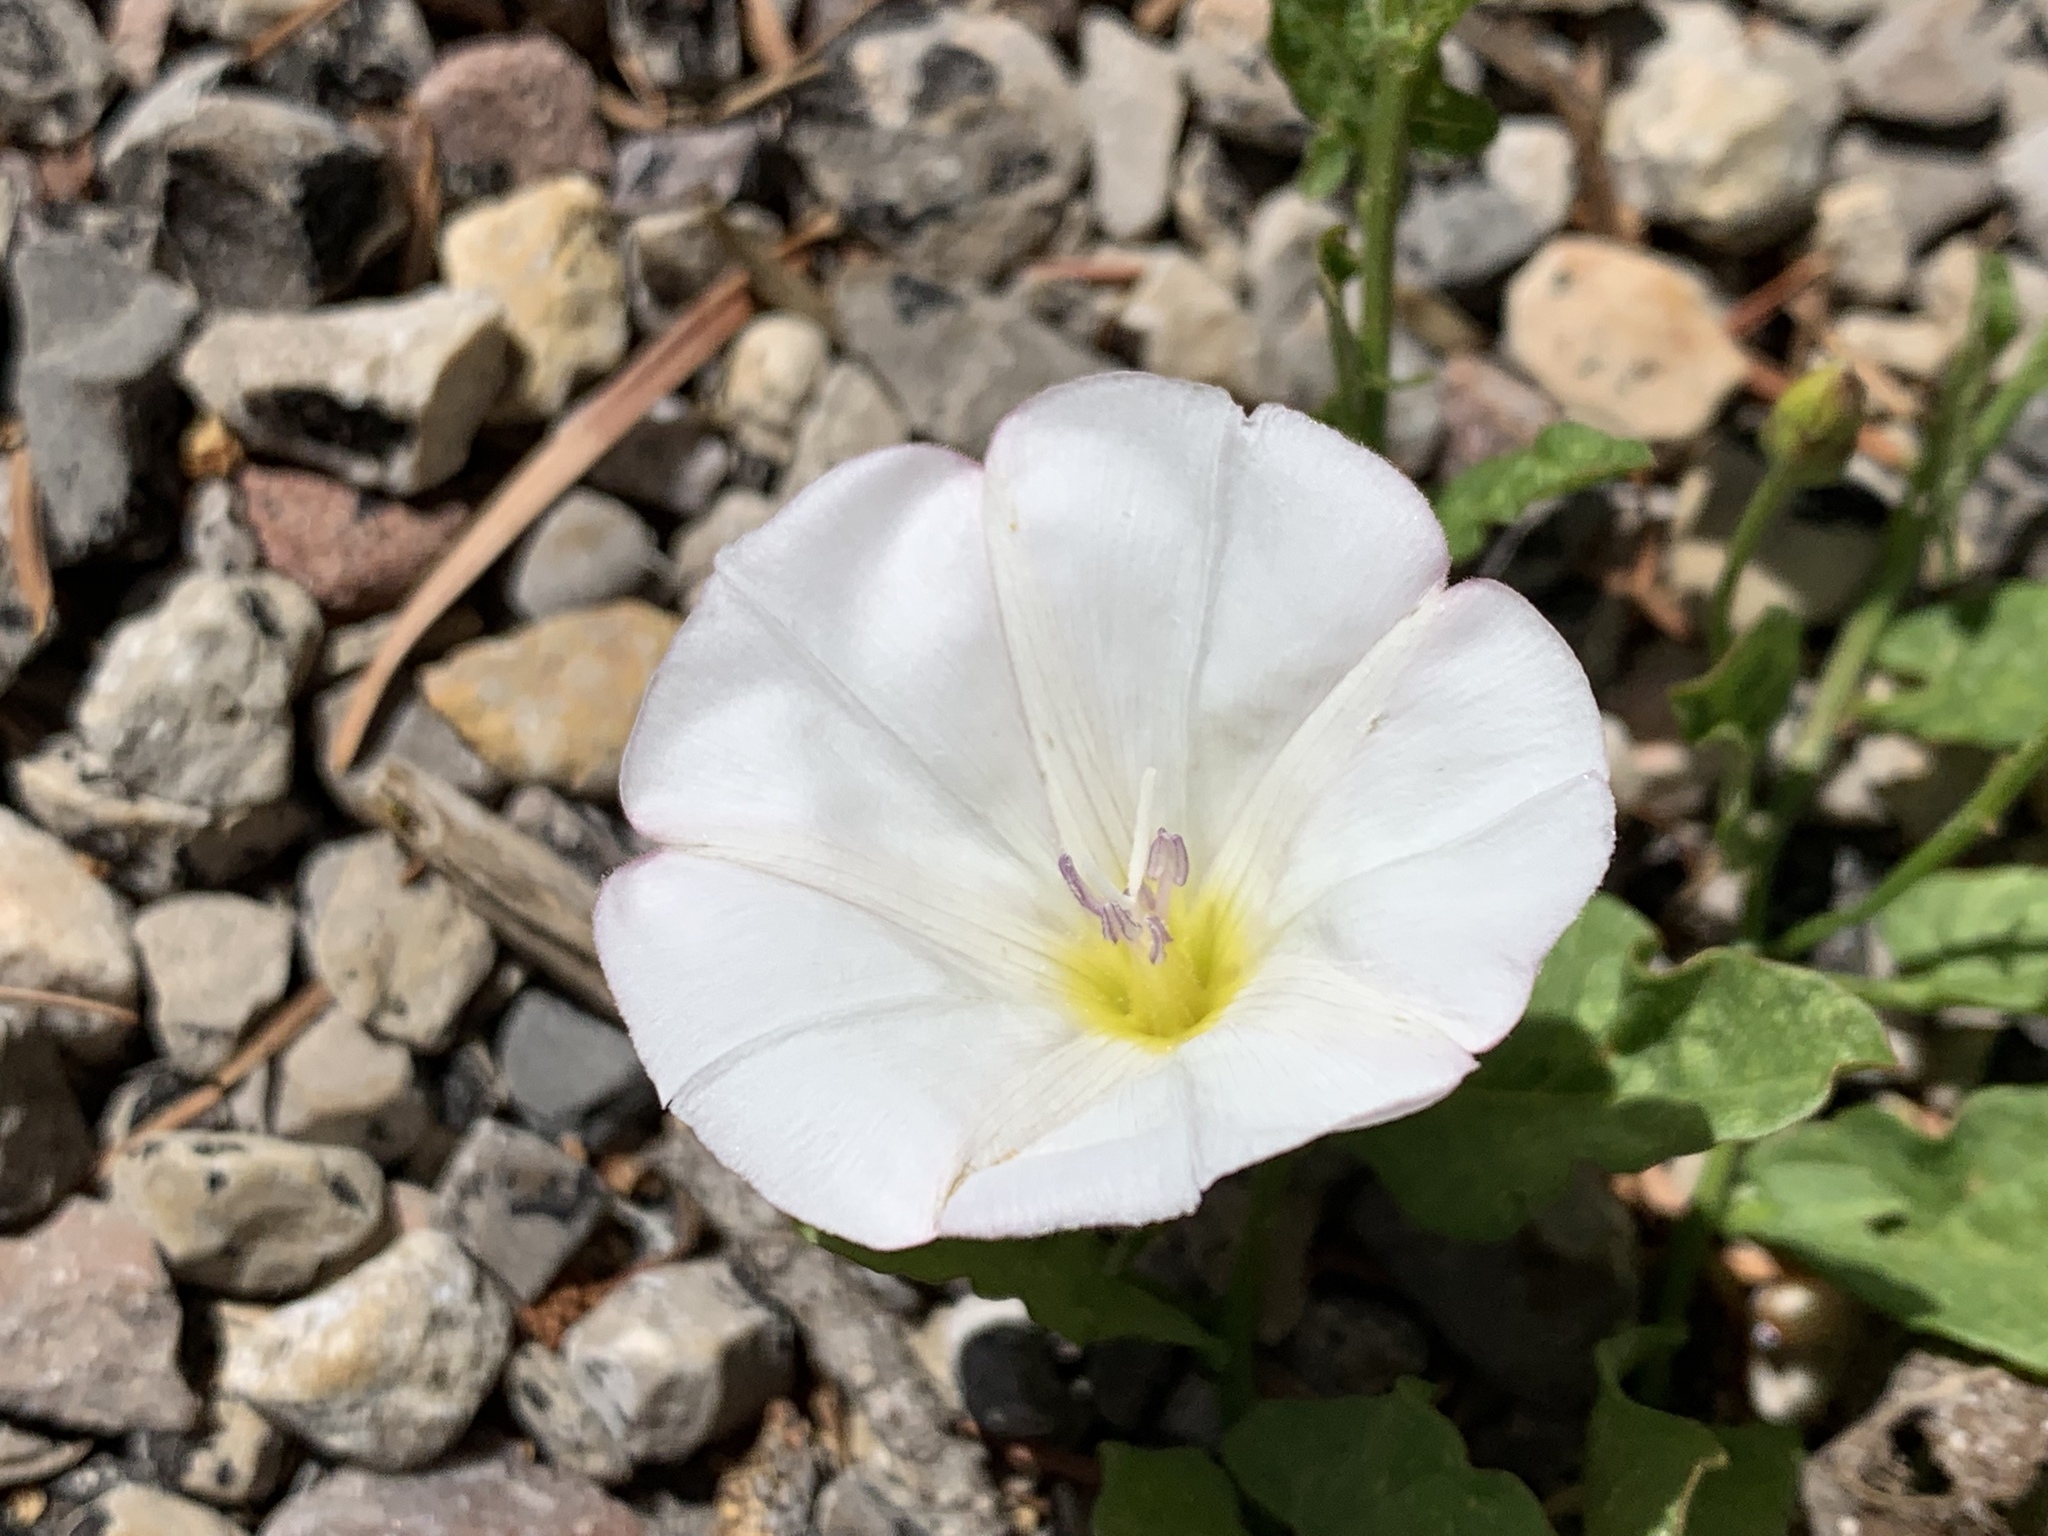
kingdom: Plantae
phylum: Tracheophyta
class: Magnoliopsida
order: Solanales
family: Convolvulaceae
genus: Convolvulus
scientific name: Convolvulus arvensis
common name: Field bindweed
